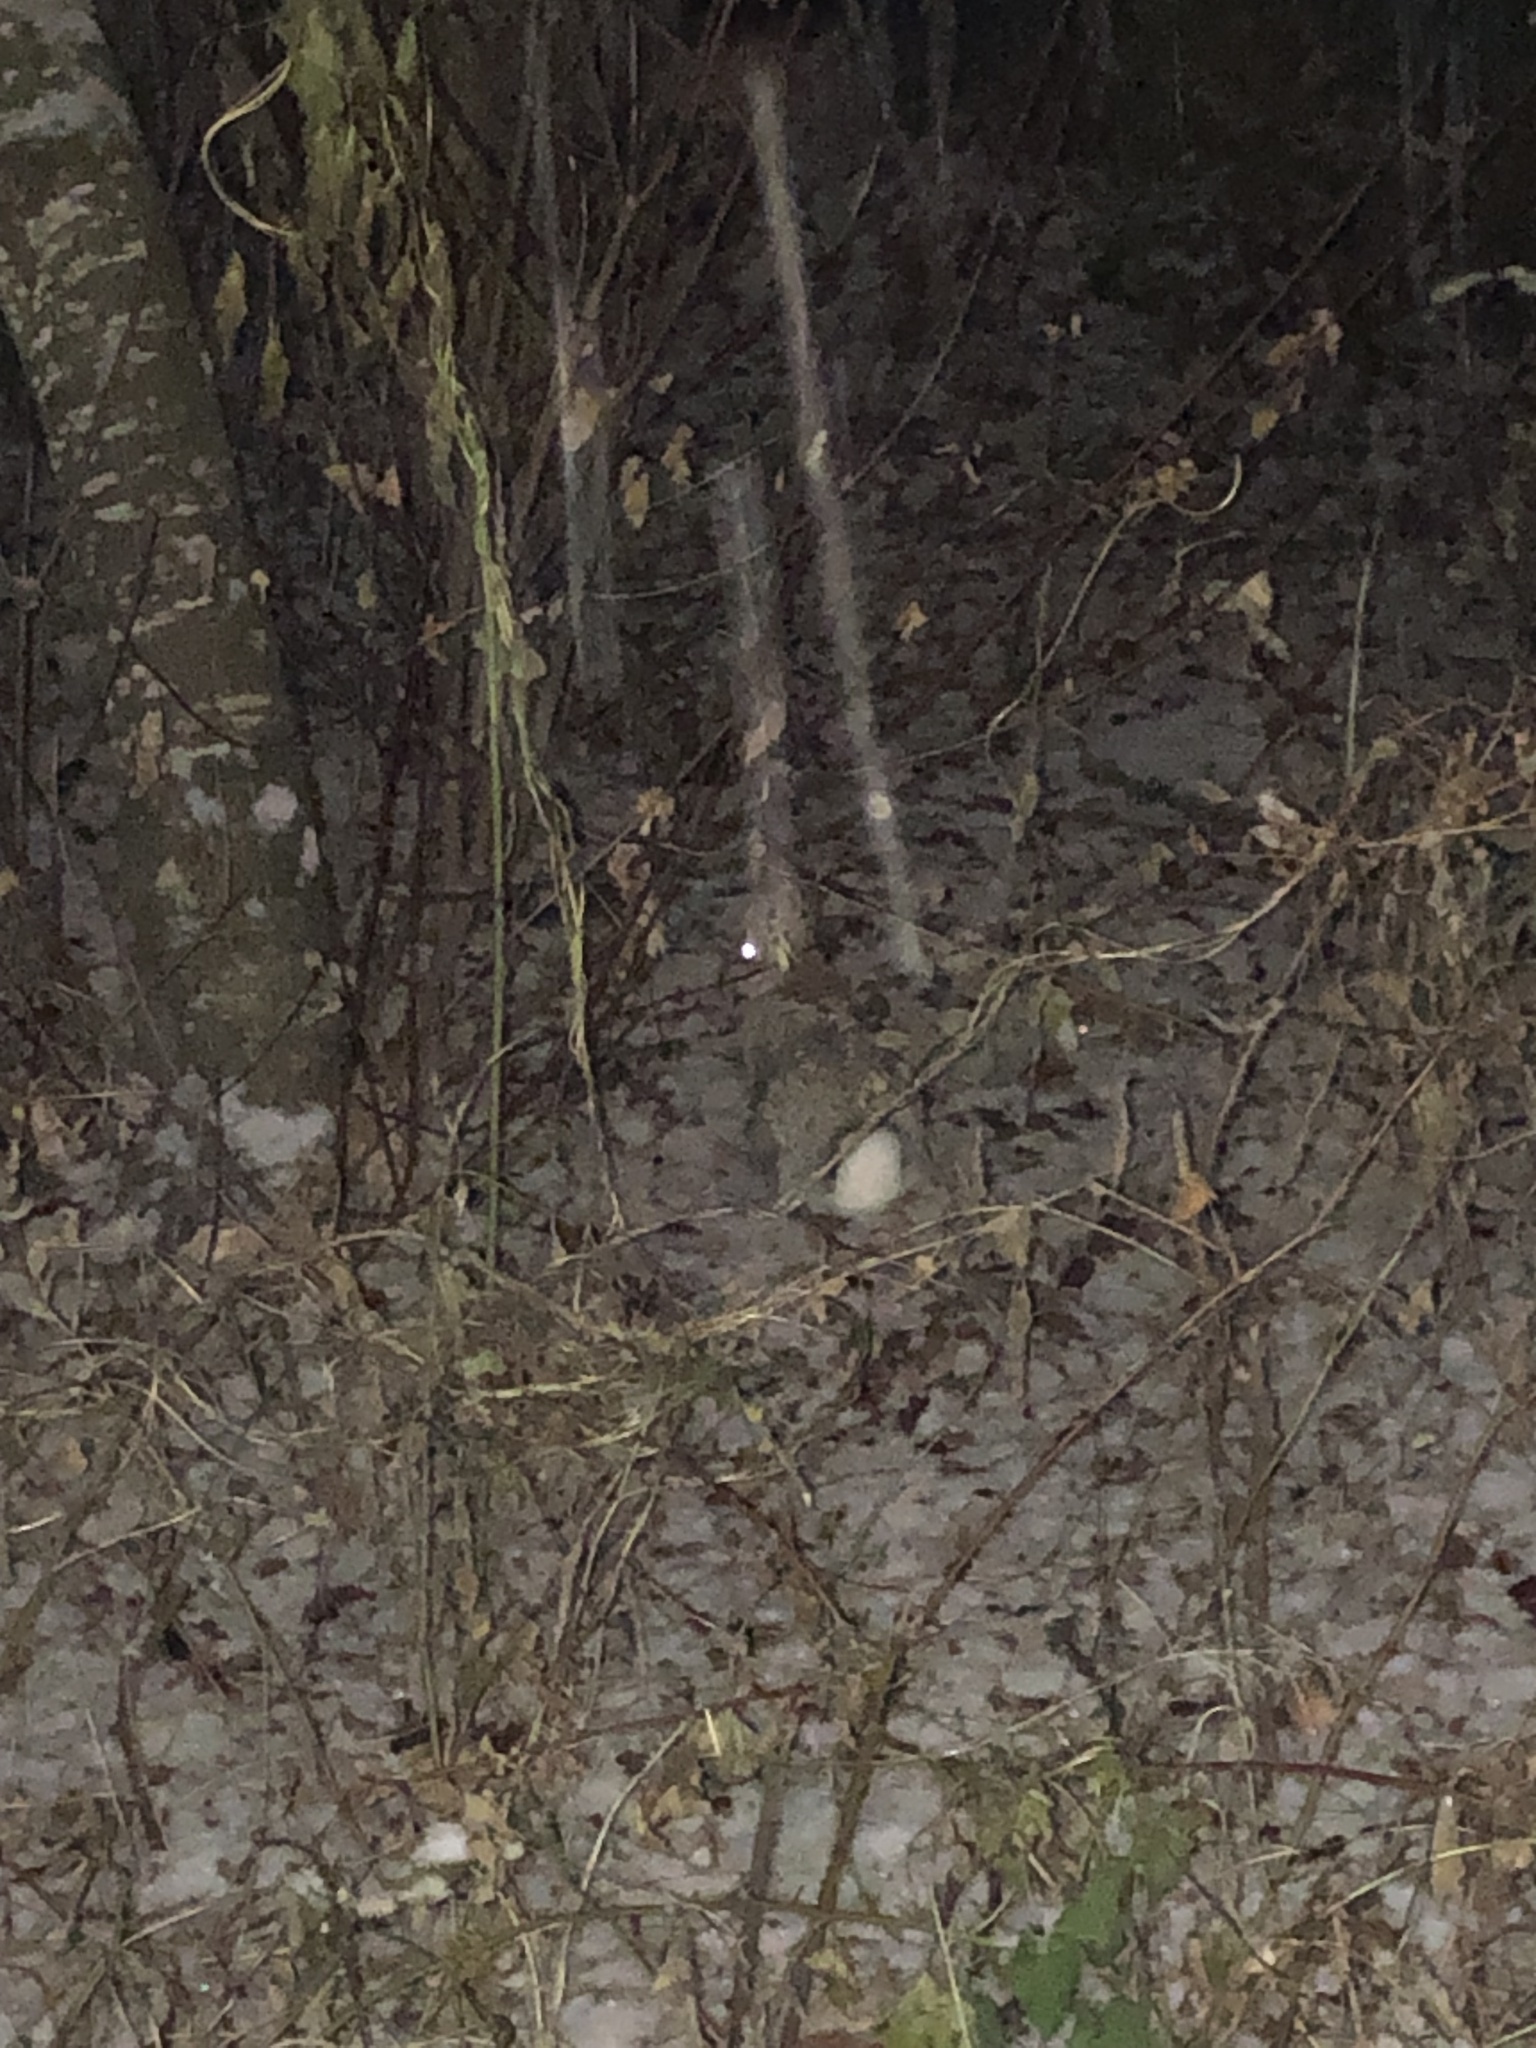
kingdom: Animalia
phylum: Chordata
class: Mammalia
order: Lagomorpha
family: Leporidae
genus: Sylvilagus
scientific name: Sylvilagus floridanus
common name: Eastern cottontail
